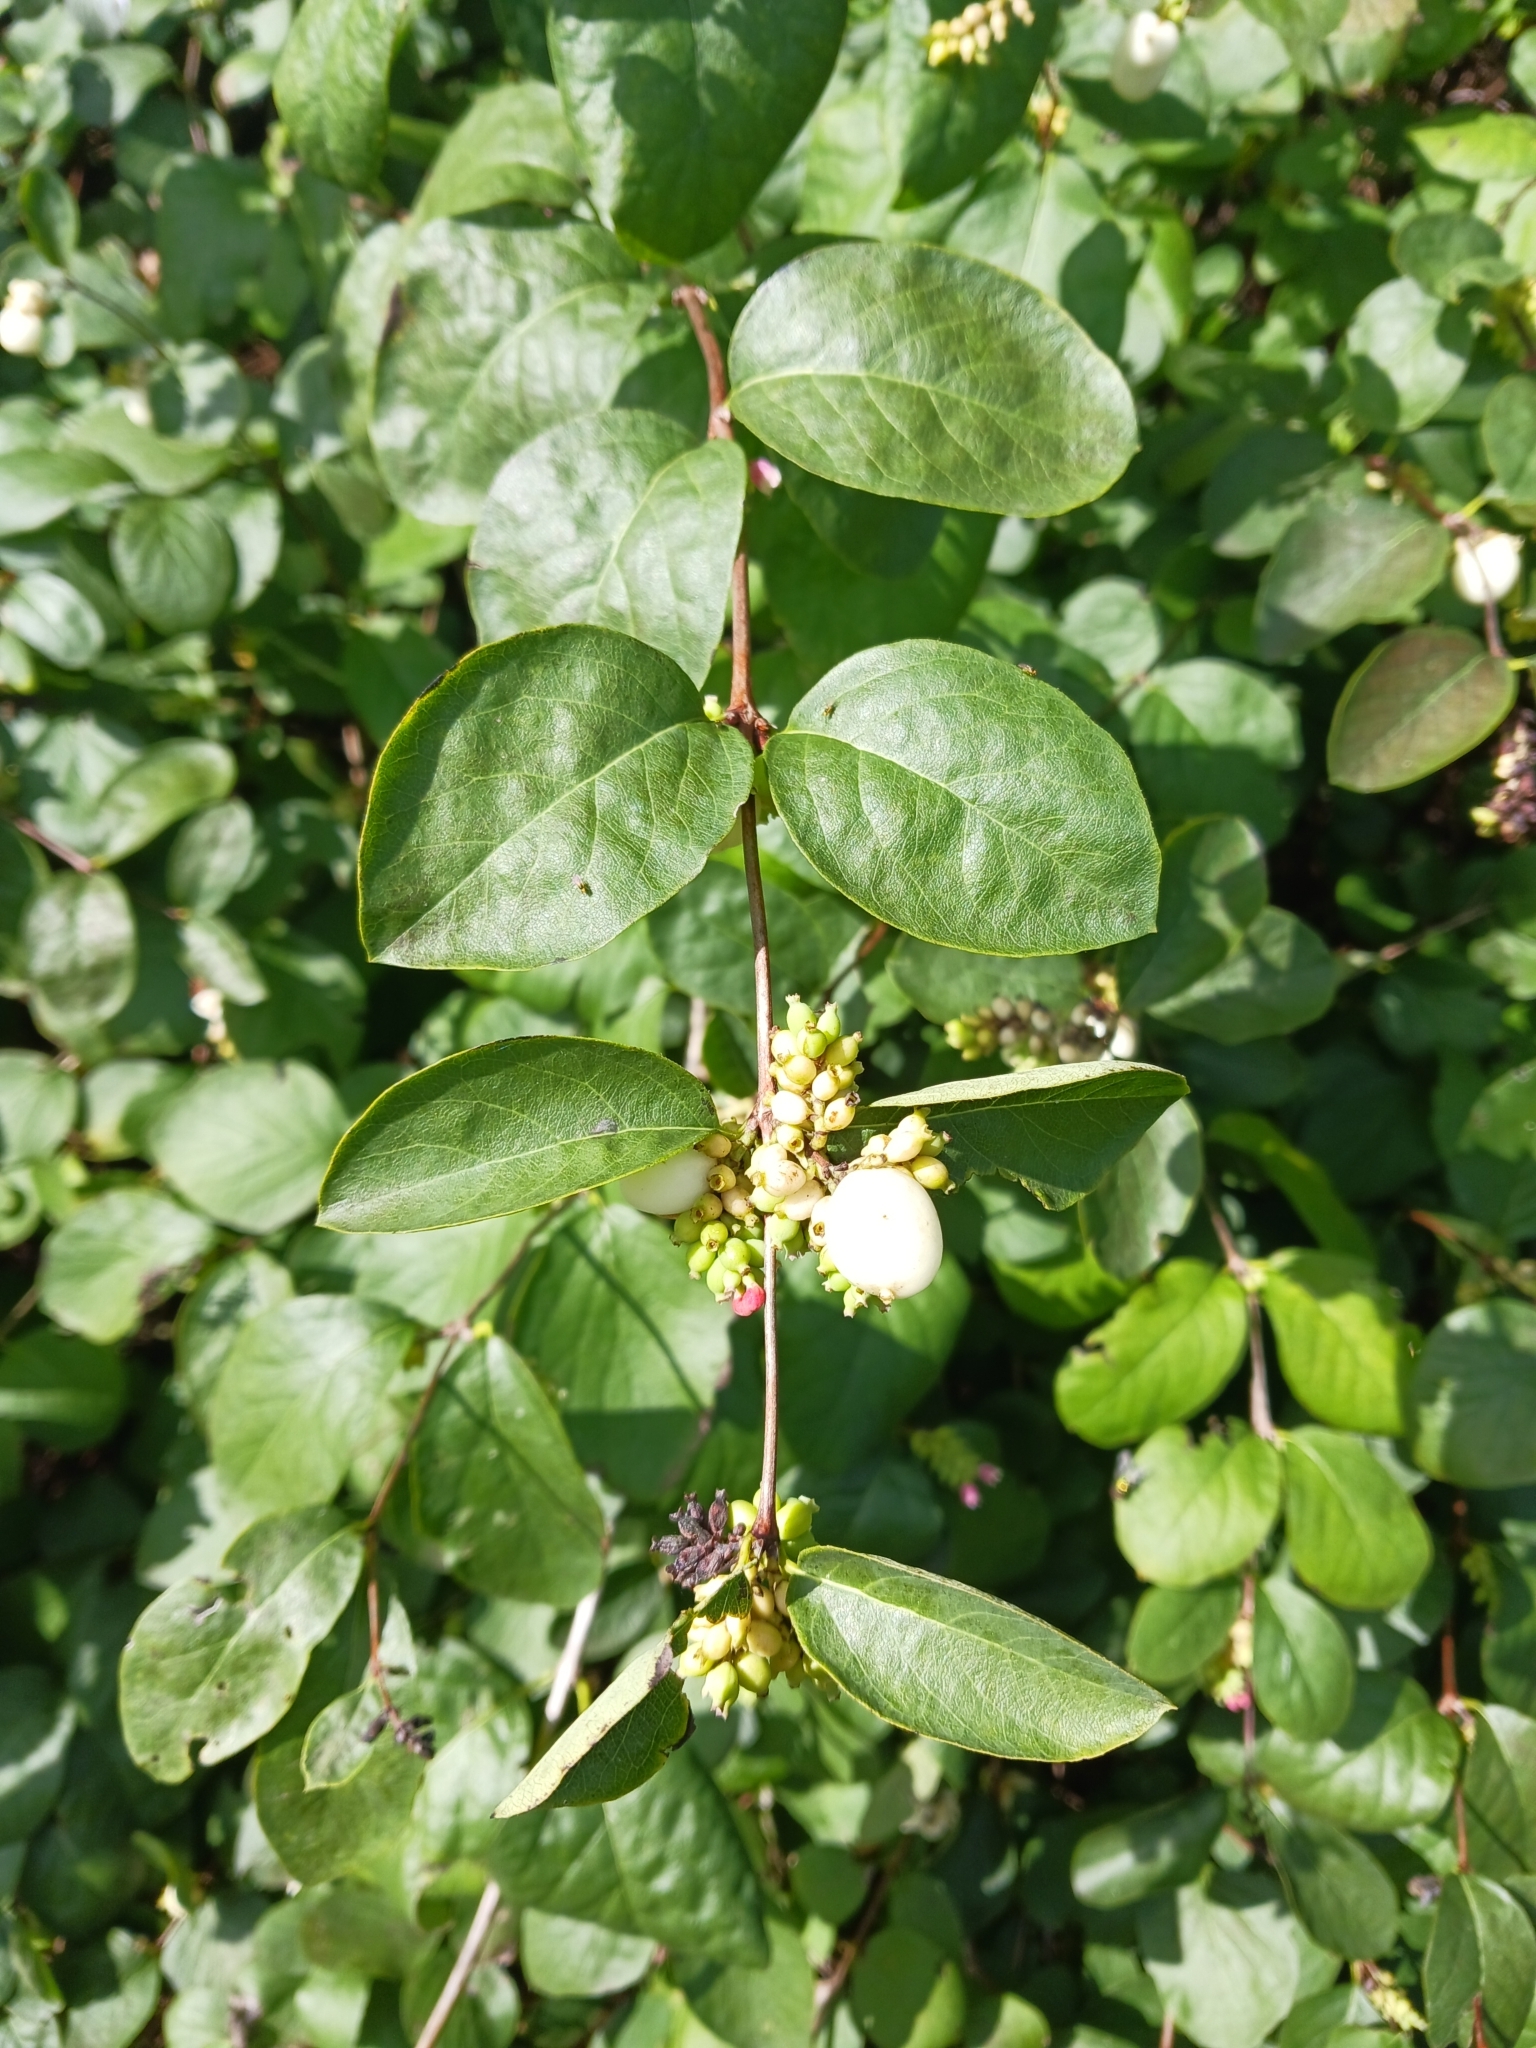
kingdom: Plantae
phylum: Tracheophyta
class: Magnoliopsida
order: Dipsacales
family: Caprifoliaceae
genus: Symphoricarpos
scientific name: Symphoricarpos albus
